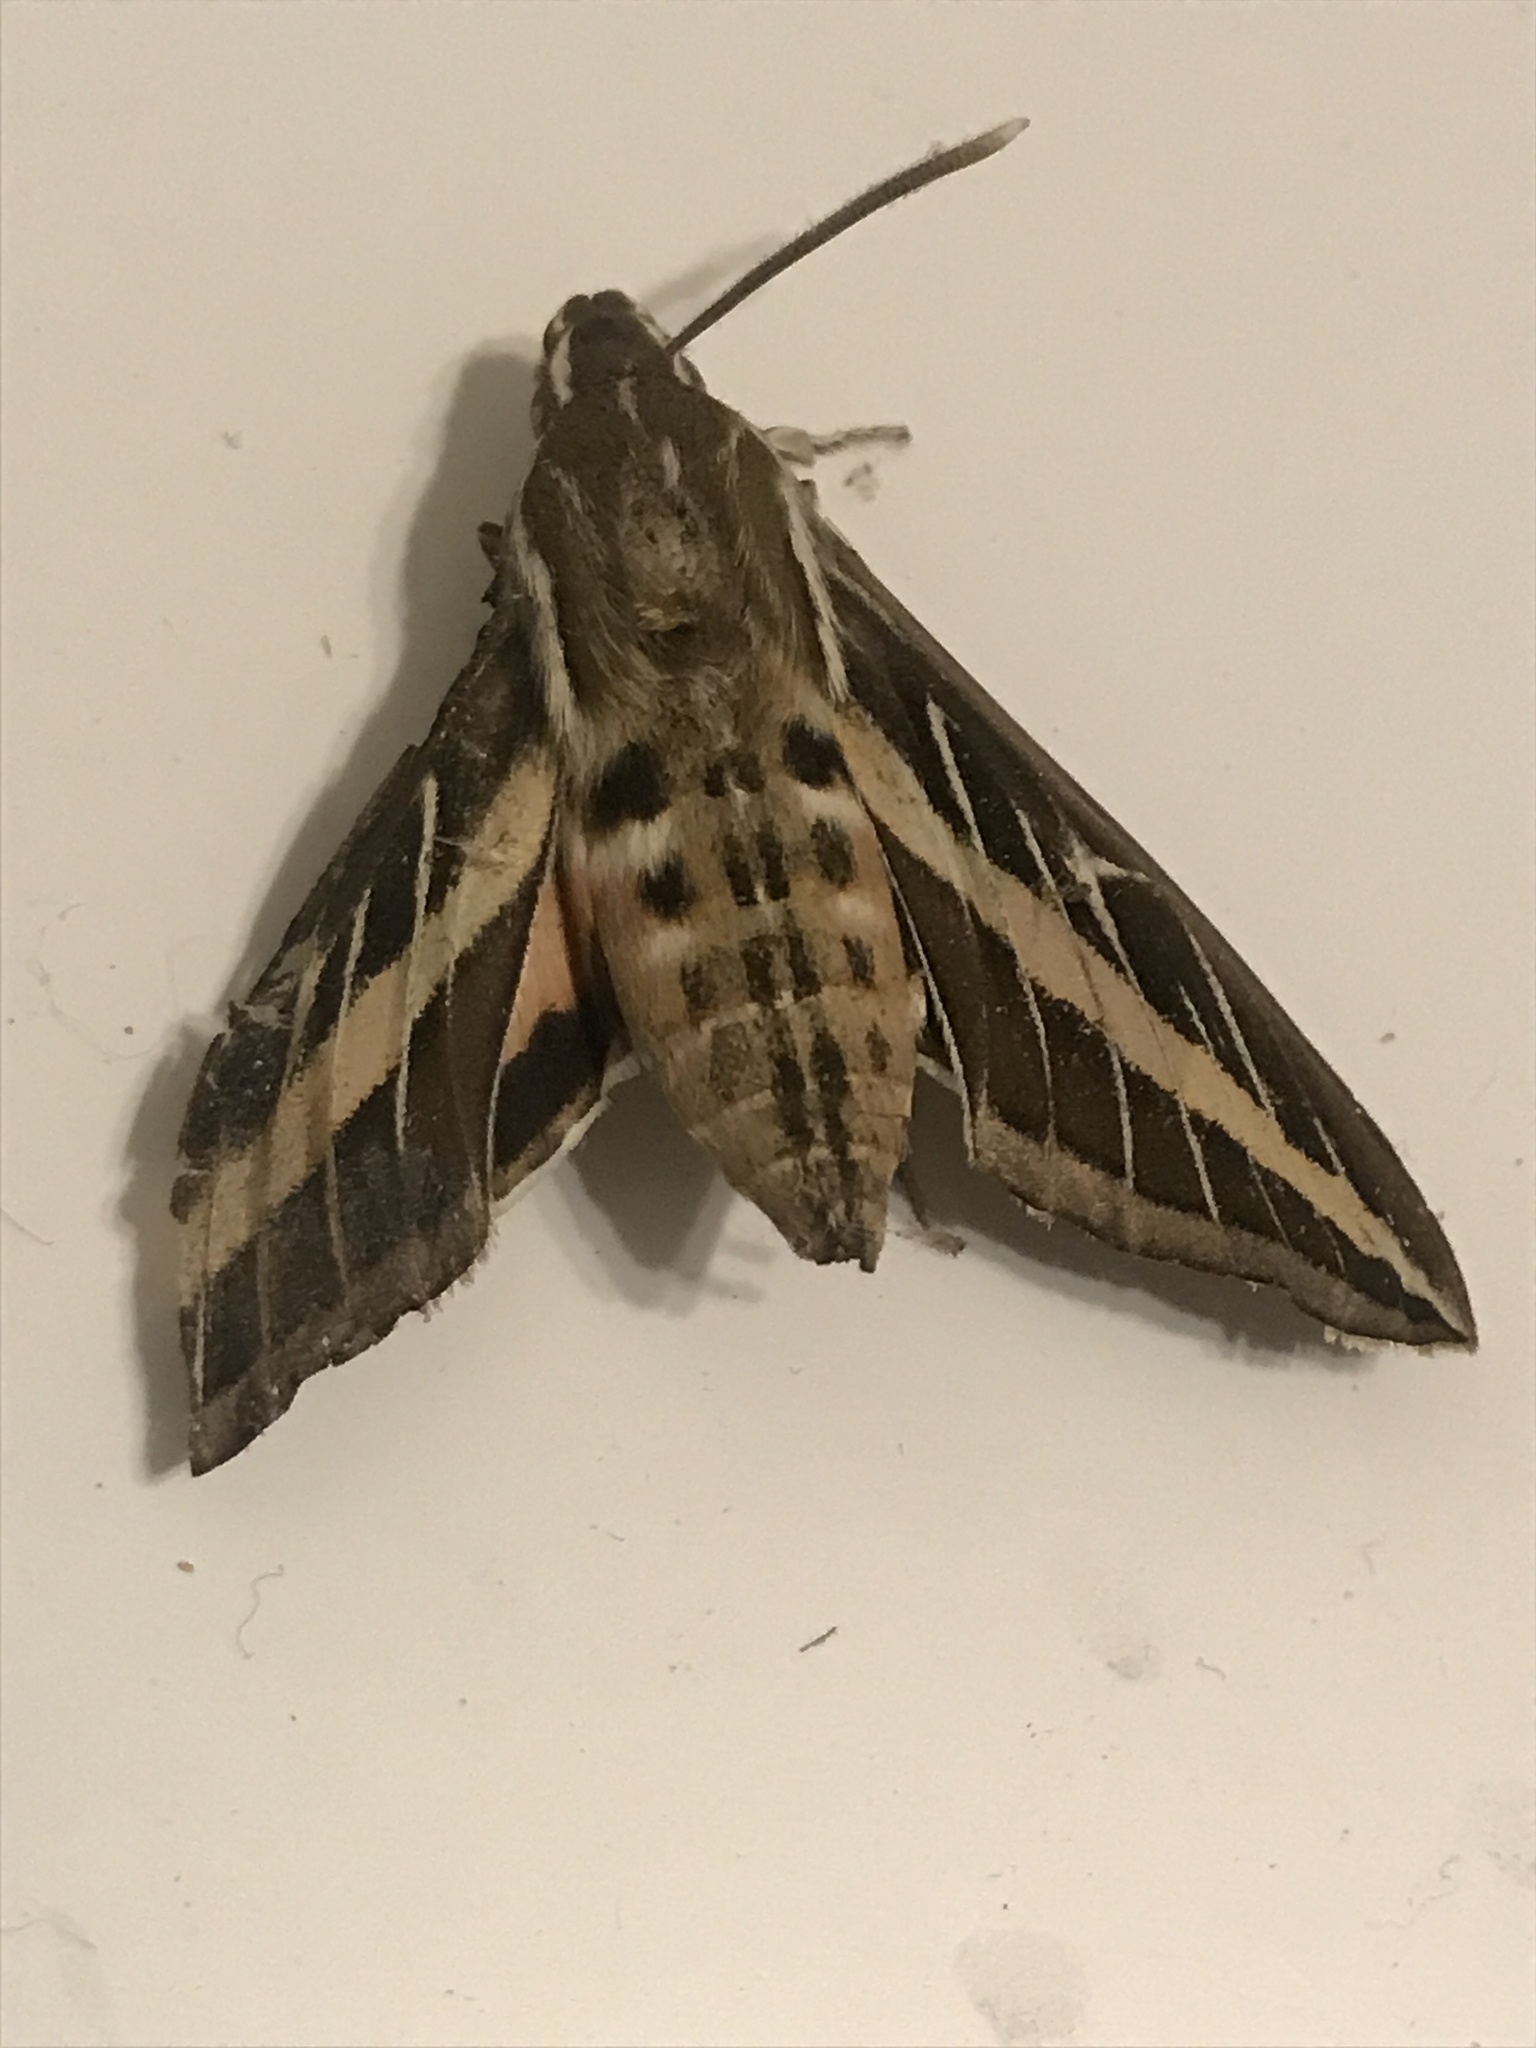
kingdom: Animalia
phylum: Arthropoda
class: Insecta
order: Lepidoptera
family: Sphingidae
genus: Hyles
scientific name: Hyles lineata
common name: White-lined sphinx
